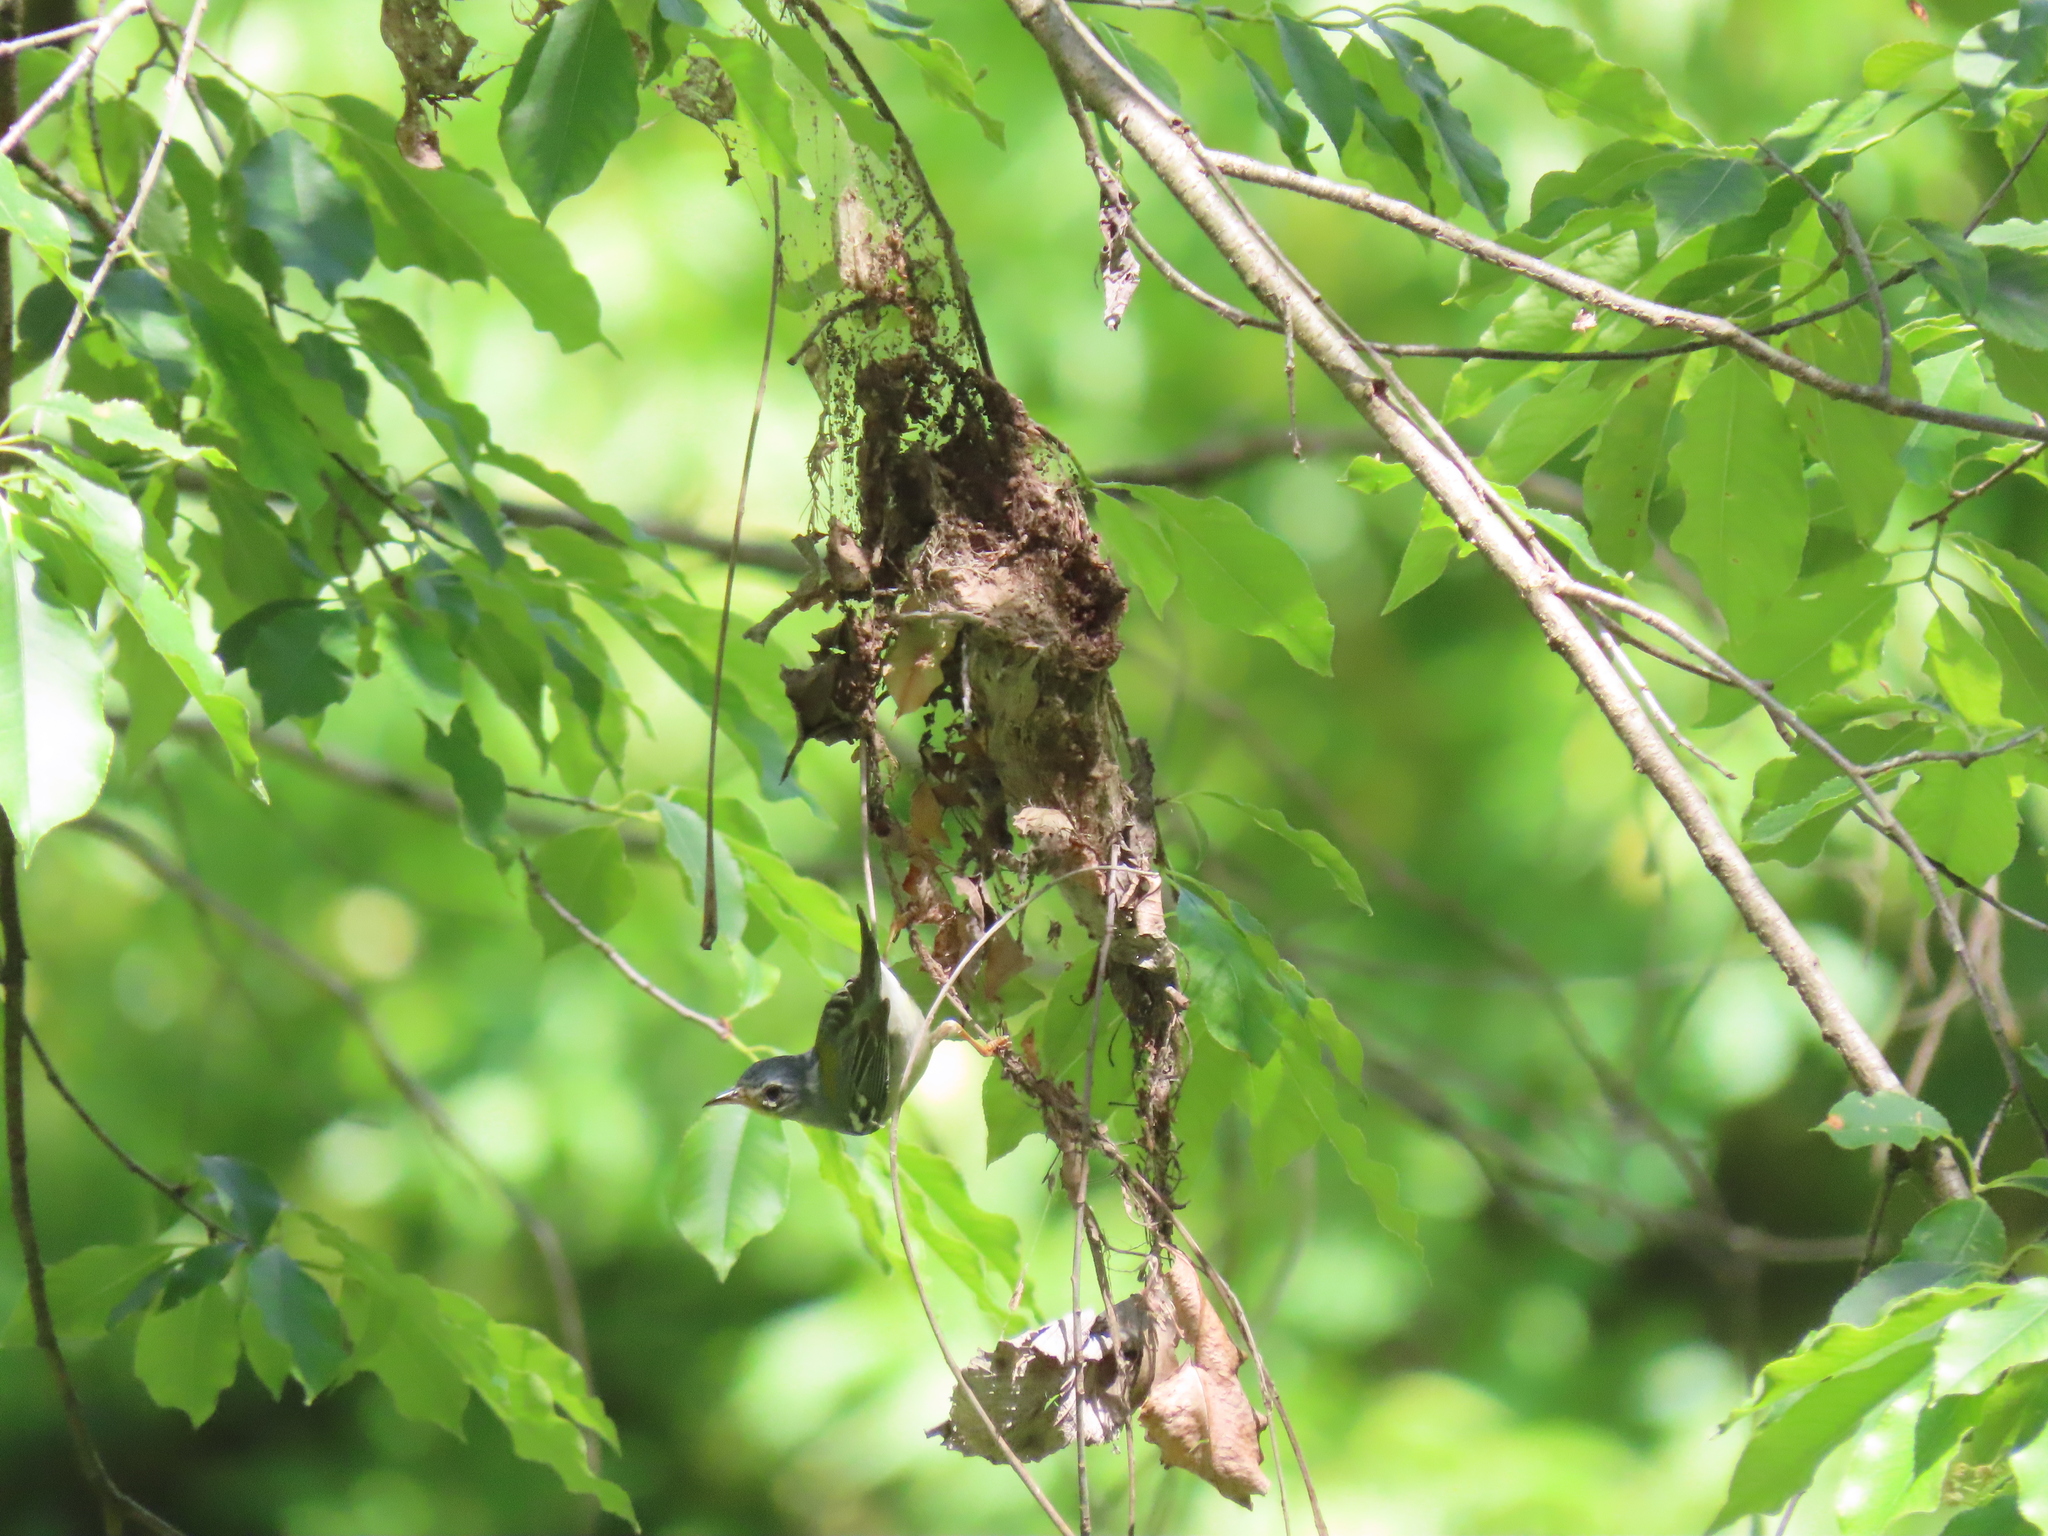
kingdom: Animalia
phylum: Chordata
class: Aves
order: Passeriformes
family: Parulidae
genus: Setophaga
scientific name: Setophaga americana
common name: Northern parula
